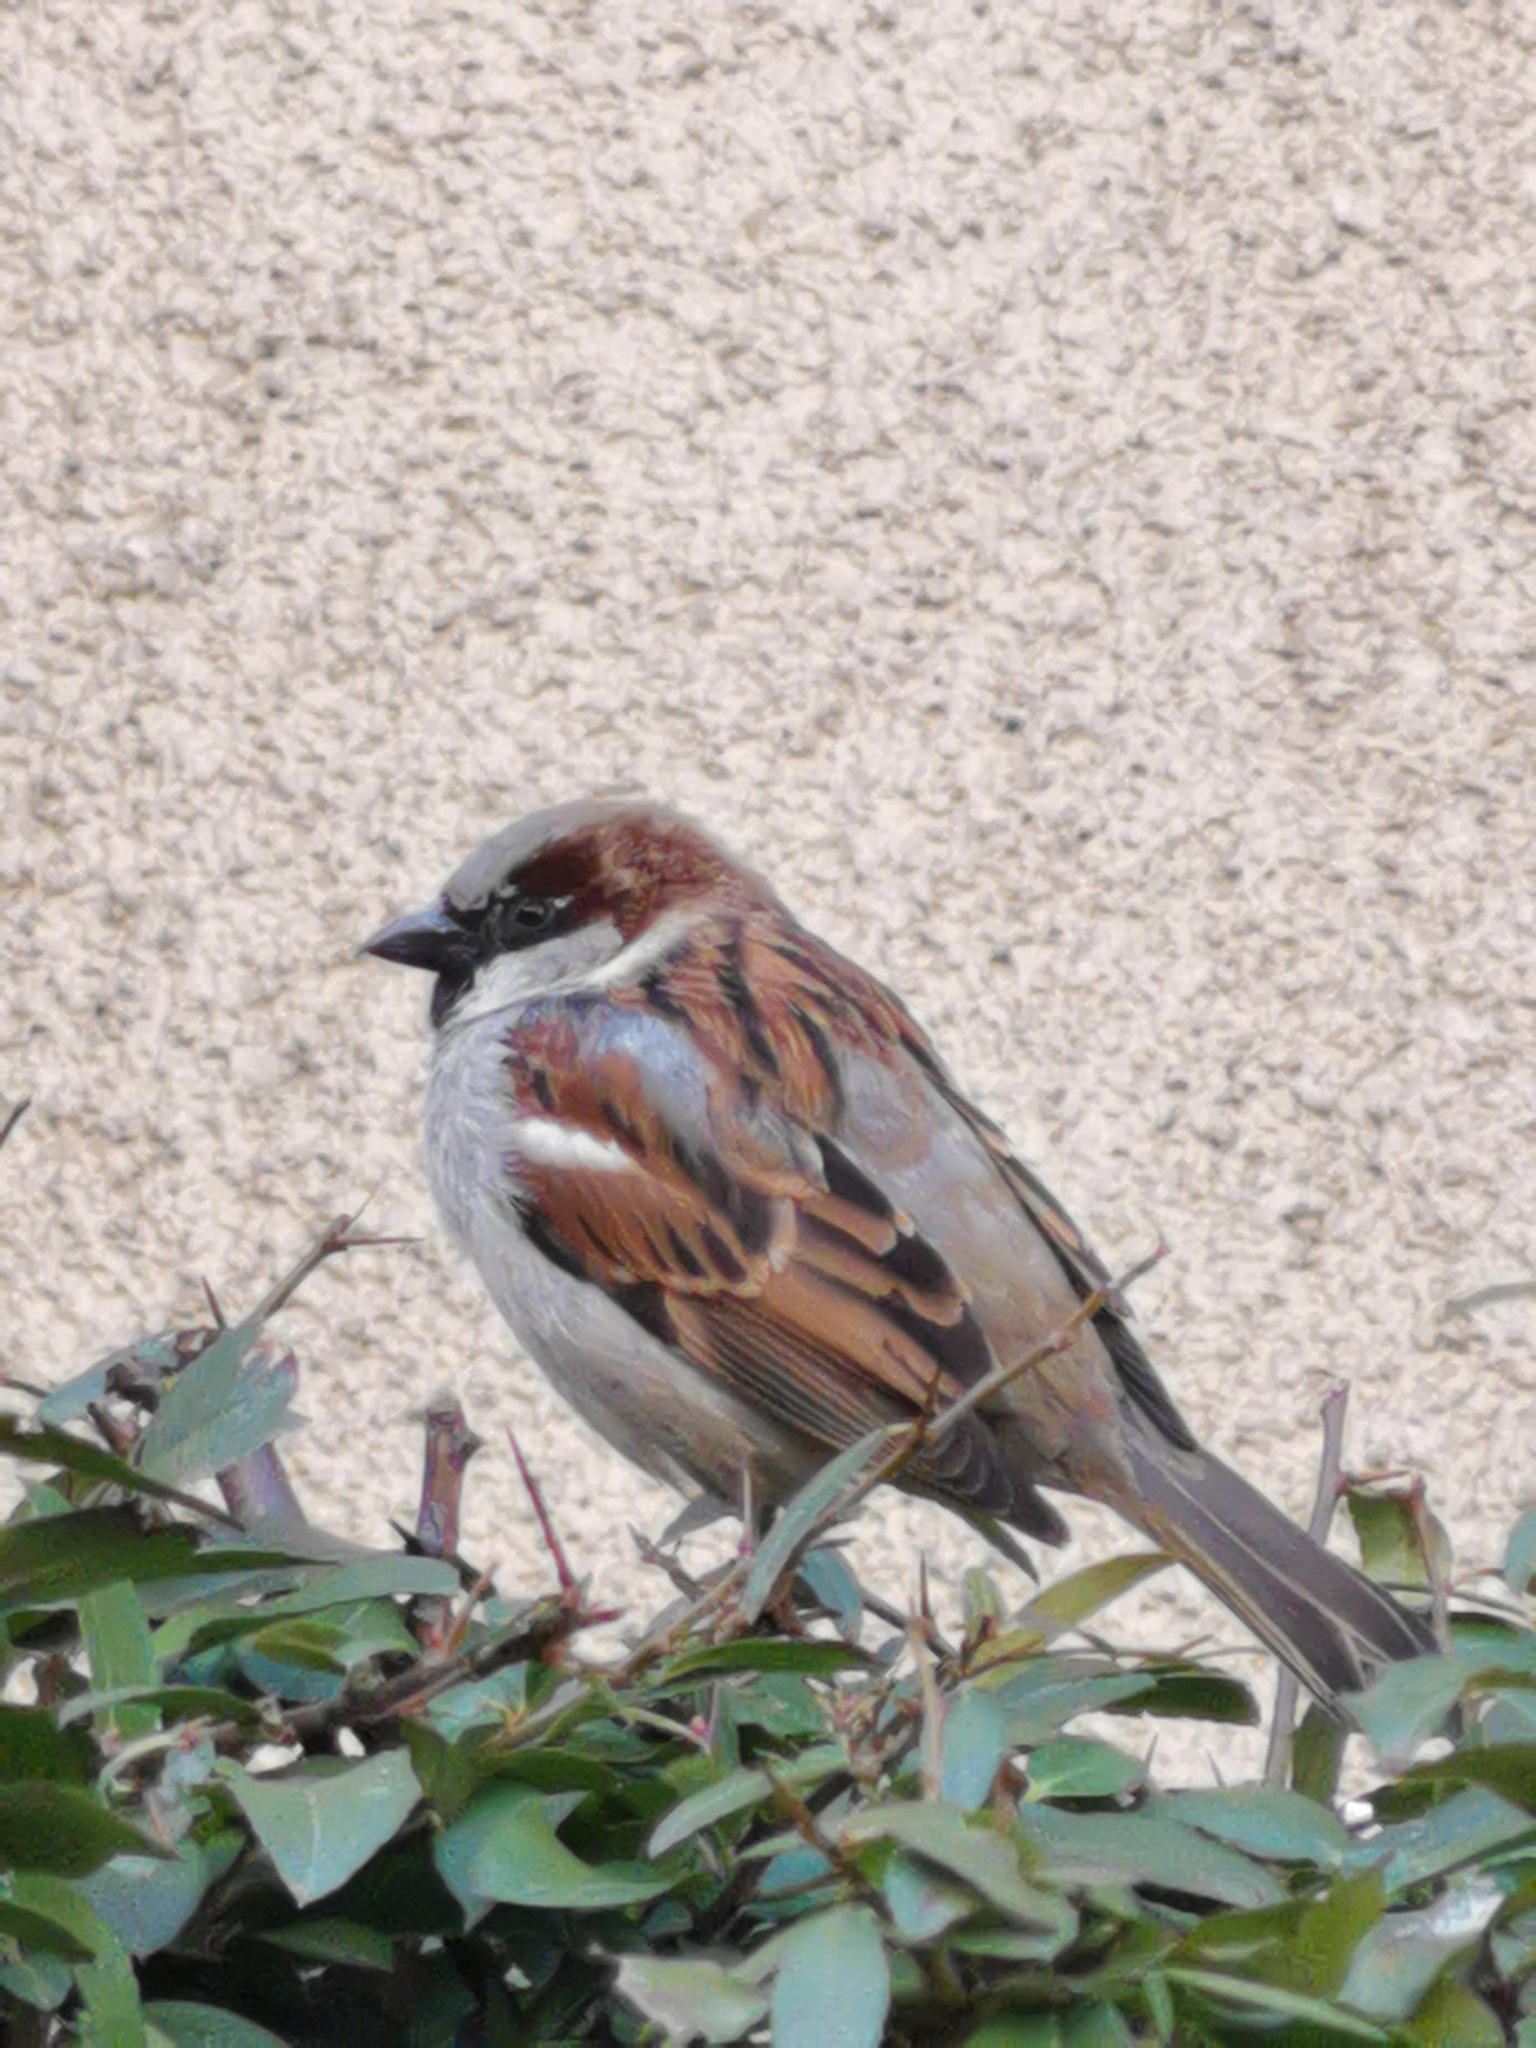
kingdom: Animalia
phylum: Chordata
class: Aves
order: Passeriformes
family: Passeridae
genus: Passer
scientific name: Passer domesticus
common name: House sparrow
